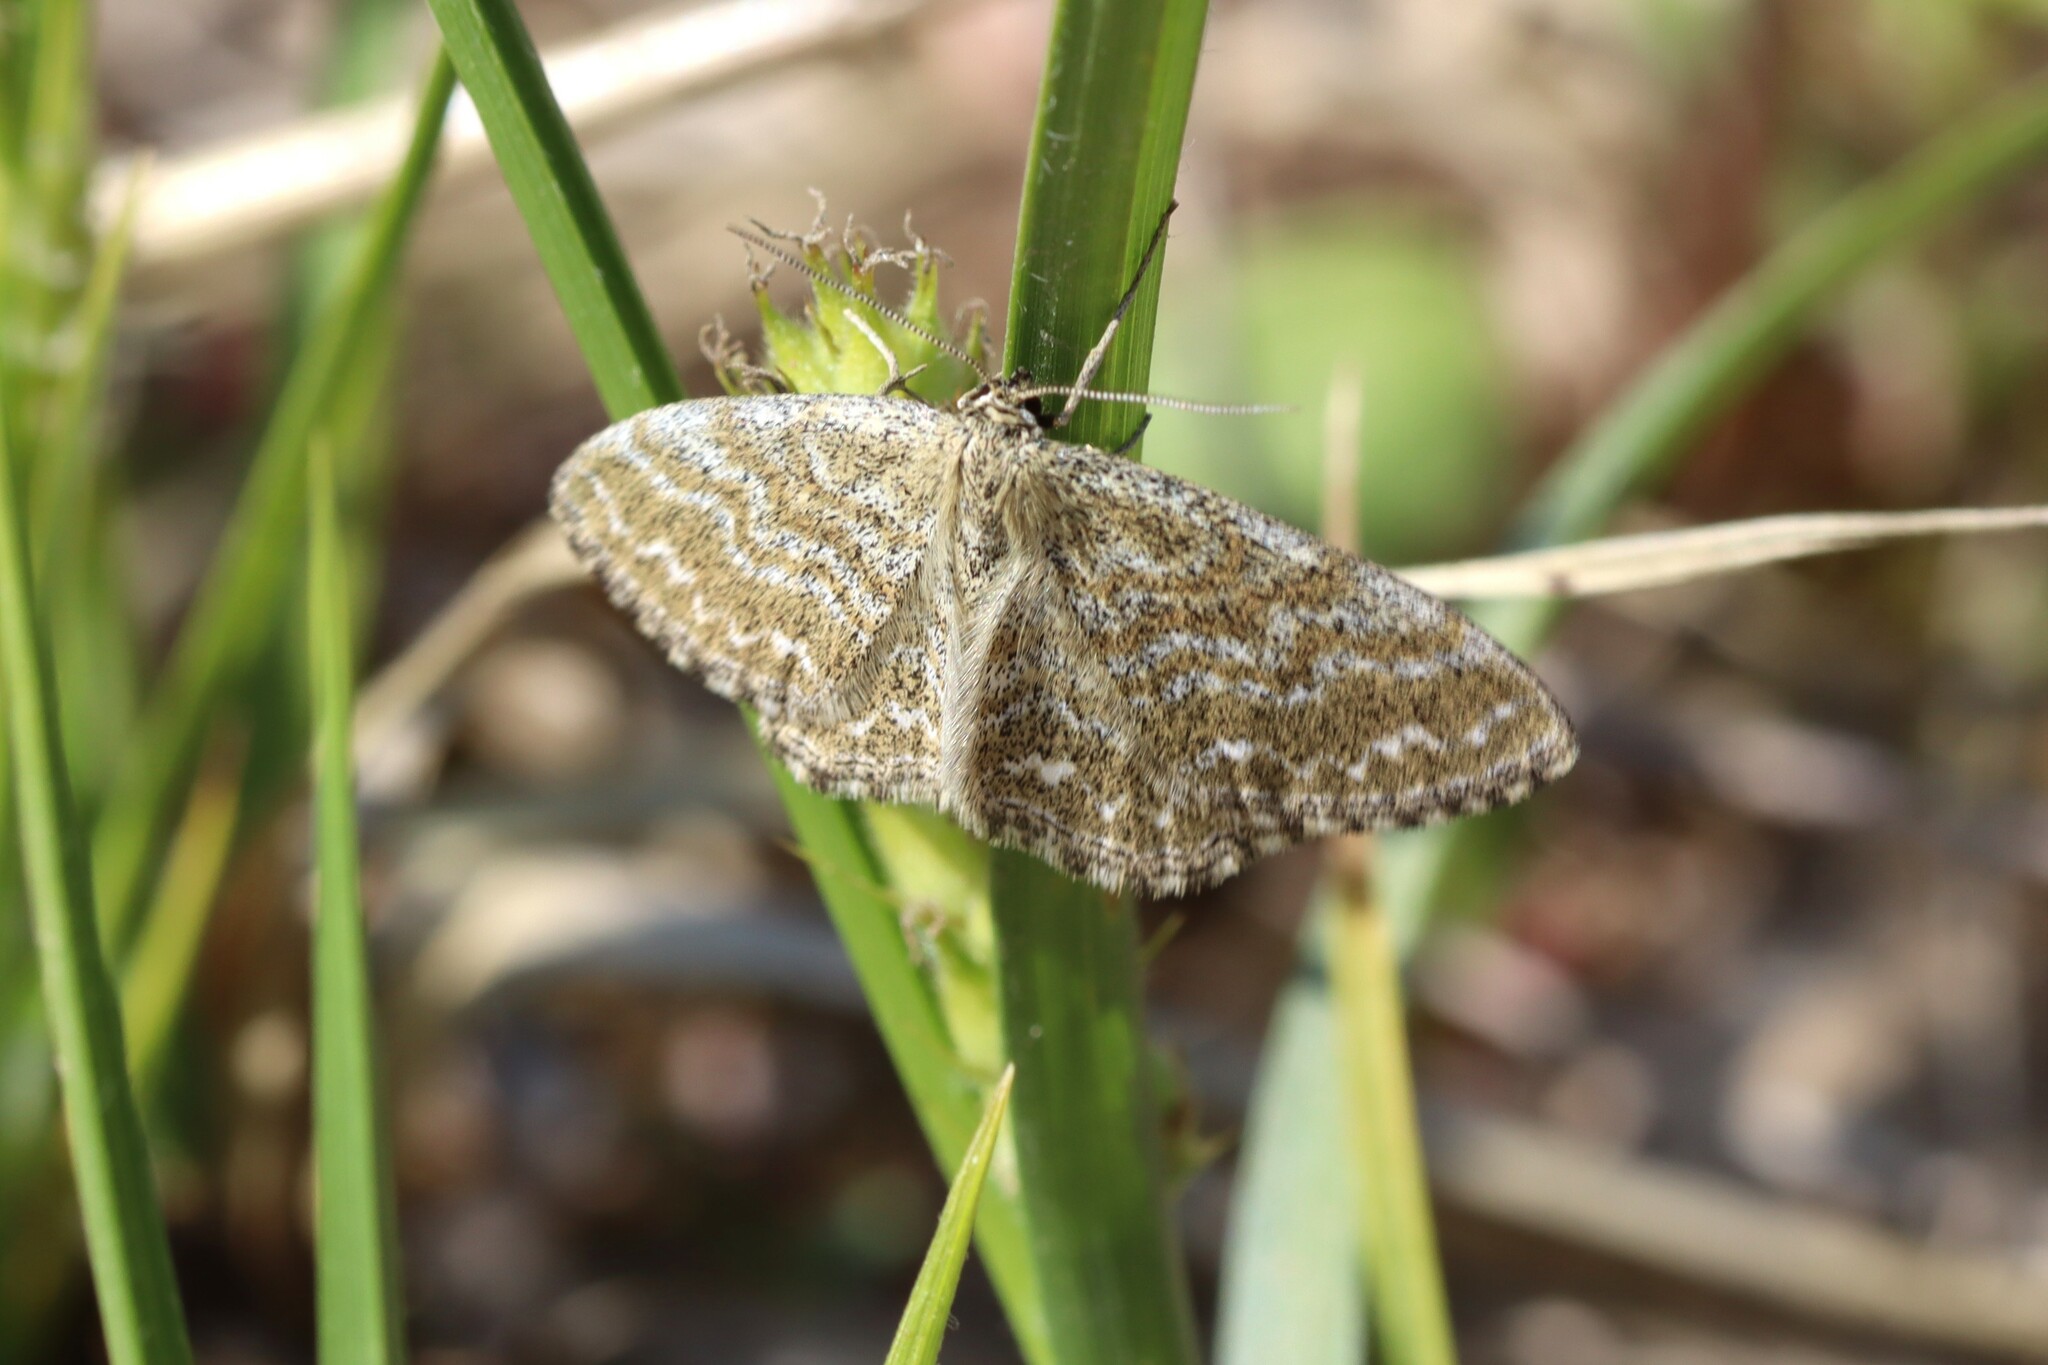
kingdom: Animalia
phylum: Arthropoda
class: Insecta
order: Lepidoptera
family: Geometridae
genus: Scopula
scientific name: Scopula immorata
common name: Lewes wave
